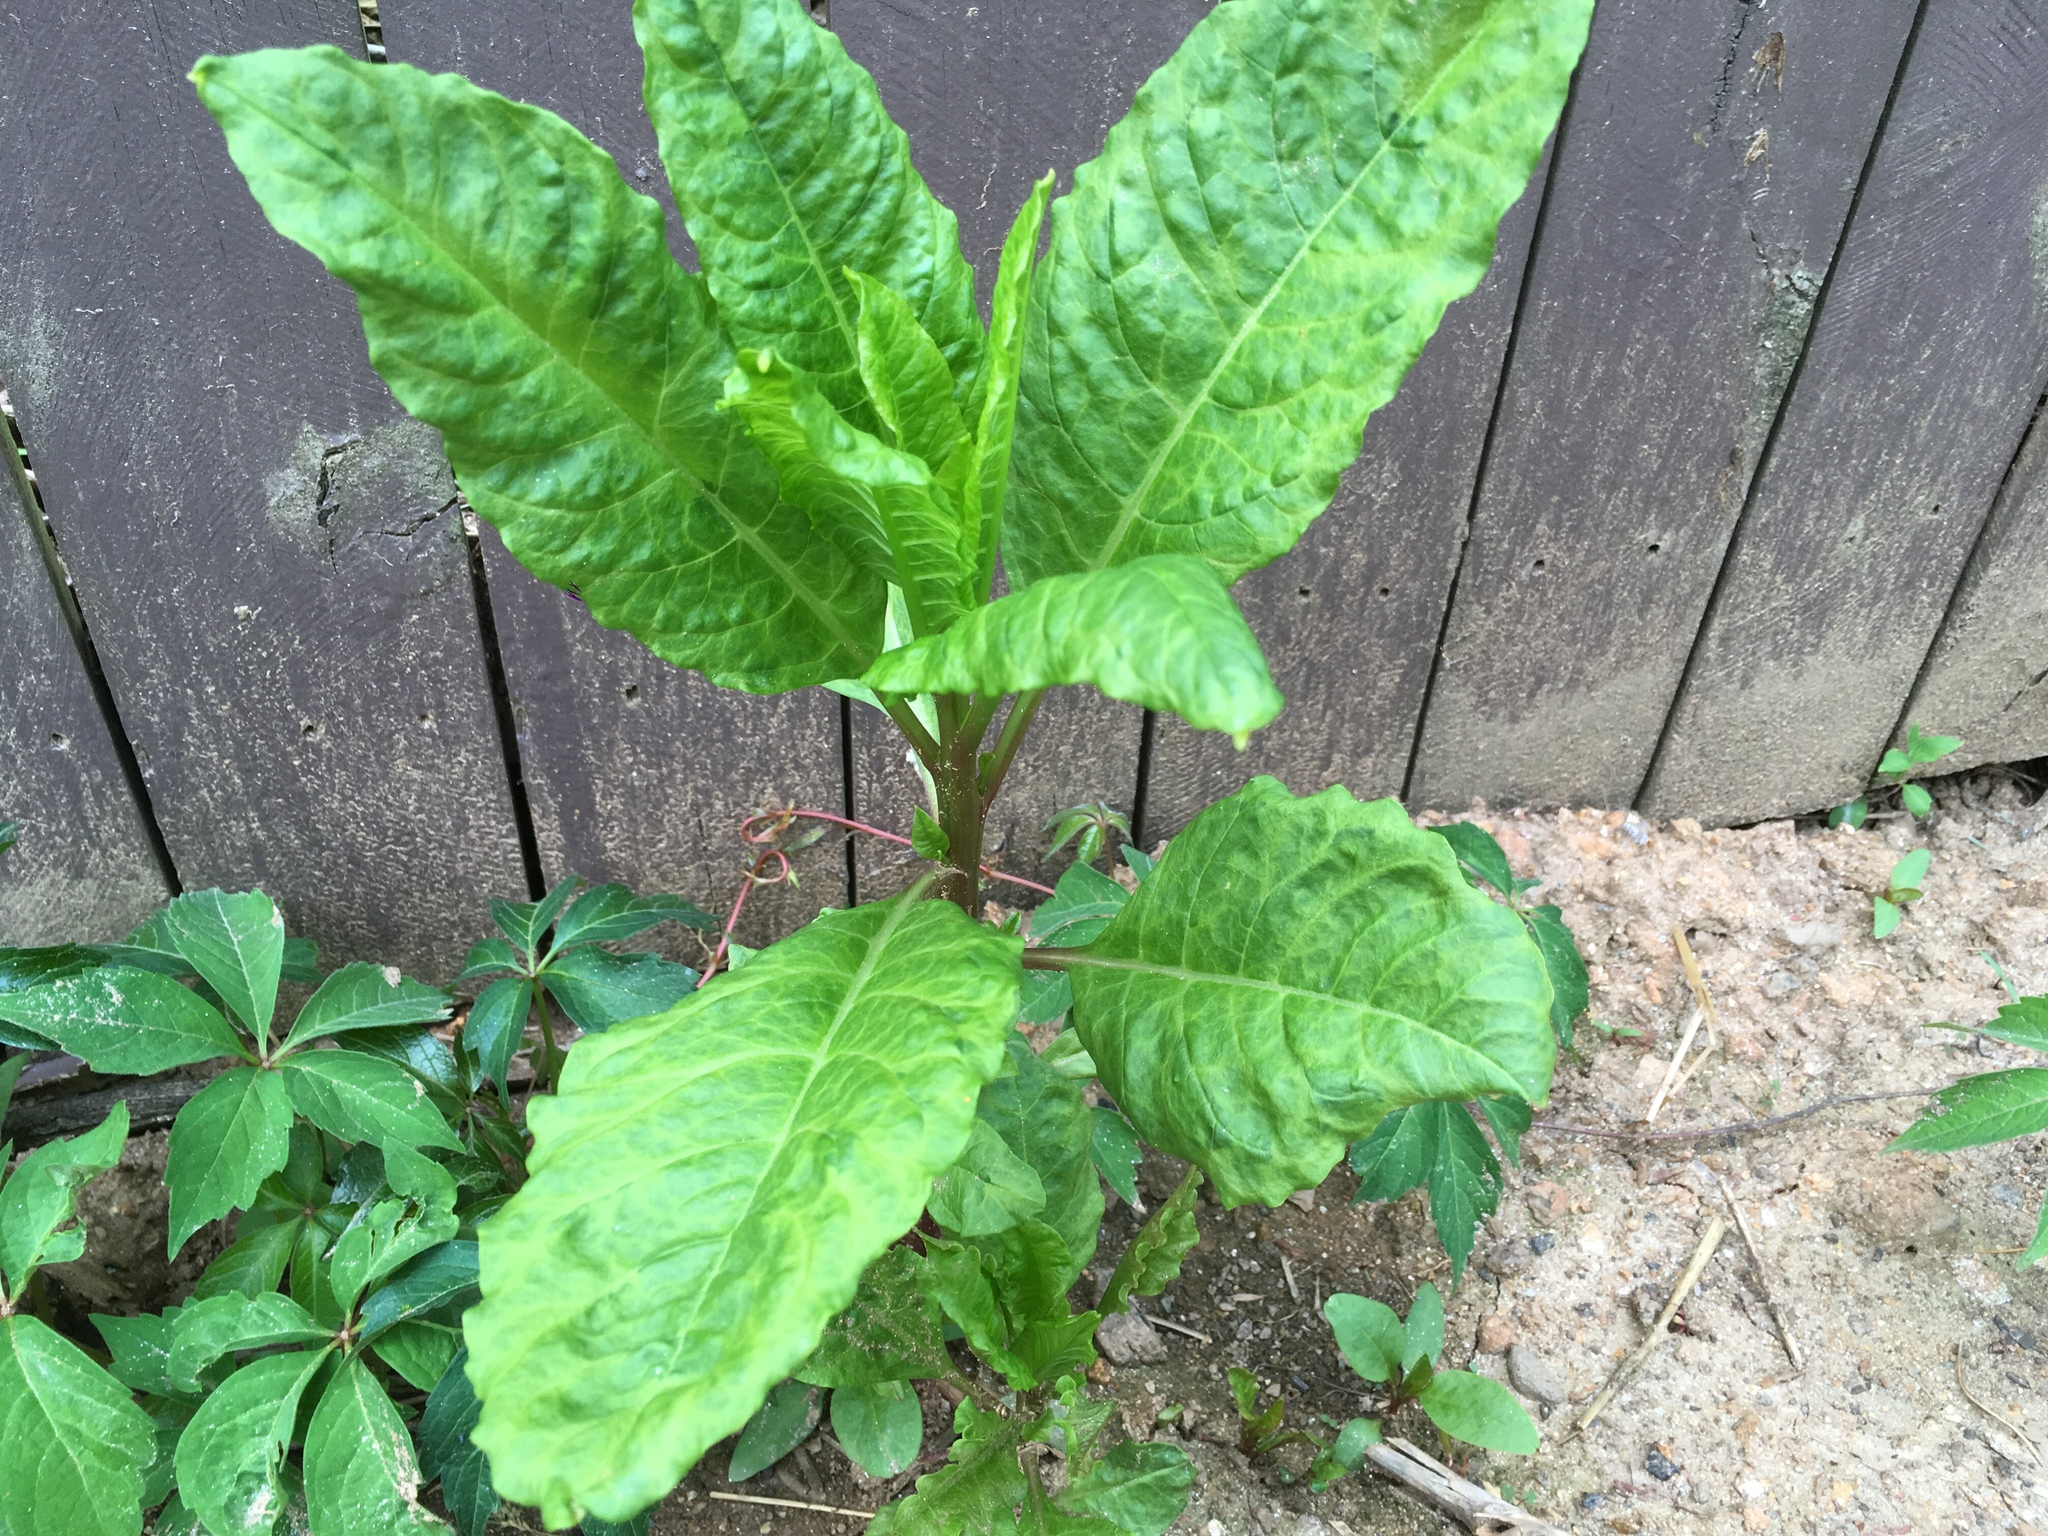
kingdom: Plantae
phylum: Tracheophyta
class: Magnoliopsida
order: Caryophyllales
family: Phytolaccaceae
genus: Phytolacca
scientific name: Phytolacca americana
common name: American pokeweed
